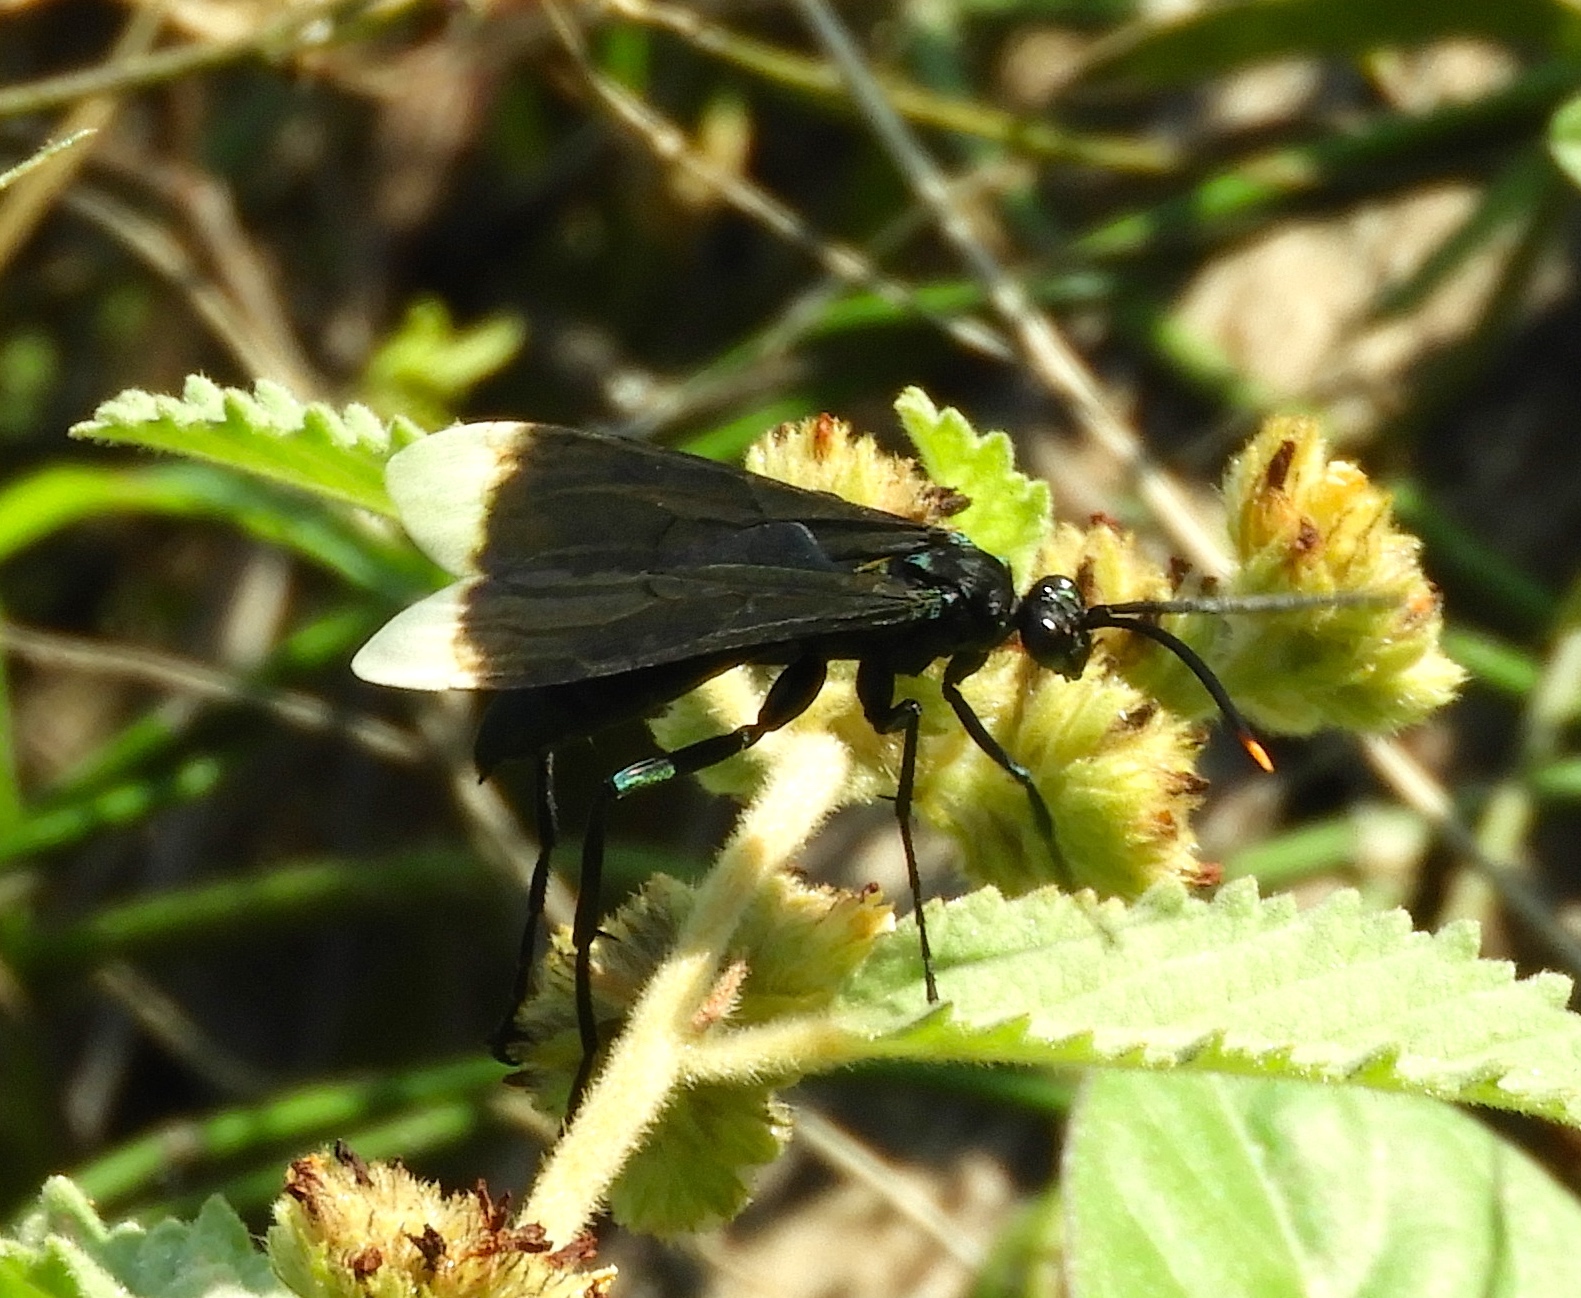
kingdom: Animalia
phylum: Arthropoda
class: Insecta
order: Hymenoptera
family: Pompilidae
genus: Pepsis
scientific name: Pepsis
